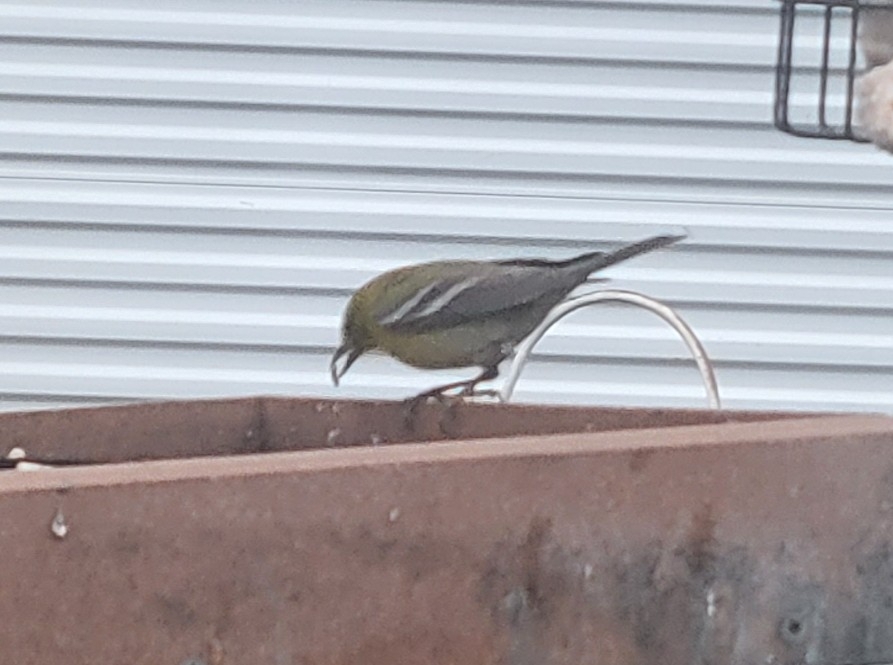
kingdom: Animalia
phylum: Chordata
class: Aves
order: Passeriformes
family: Parulidae
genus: Setophaga
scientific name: Setophaga pinus
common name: Pine warbler
